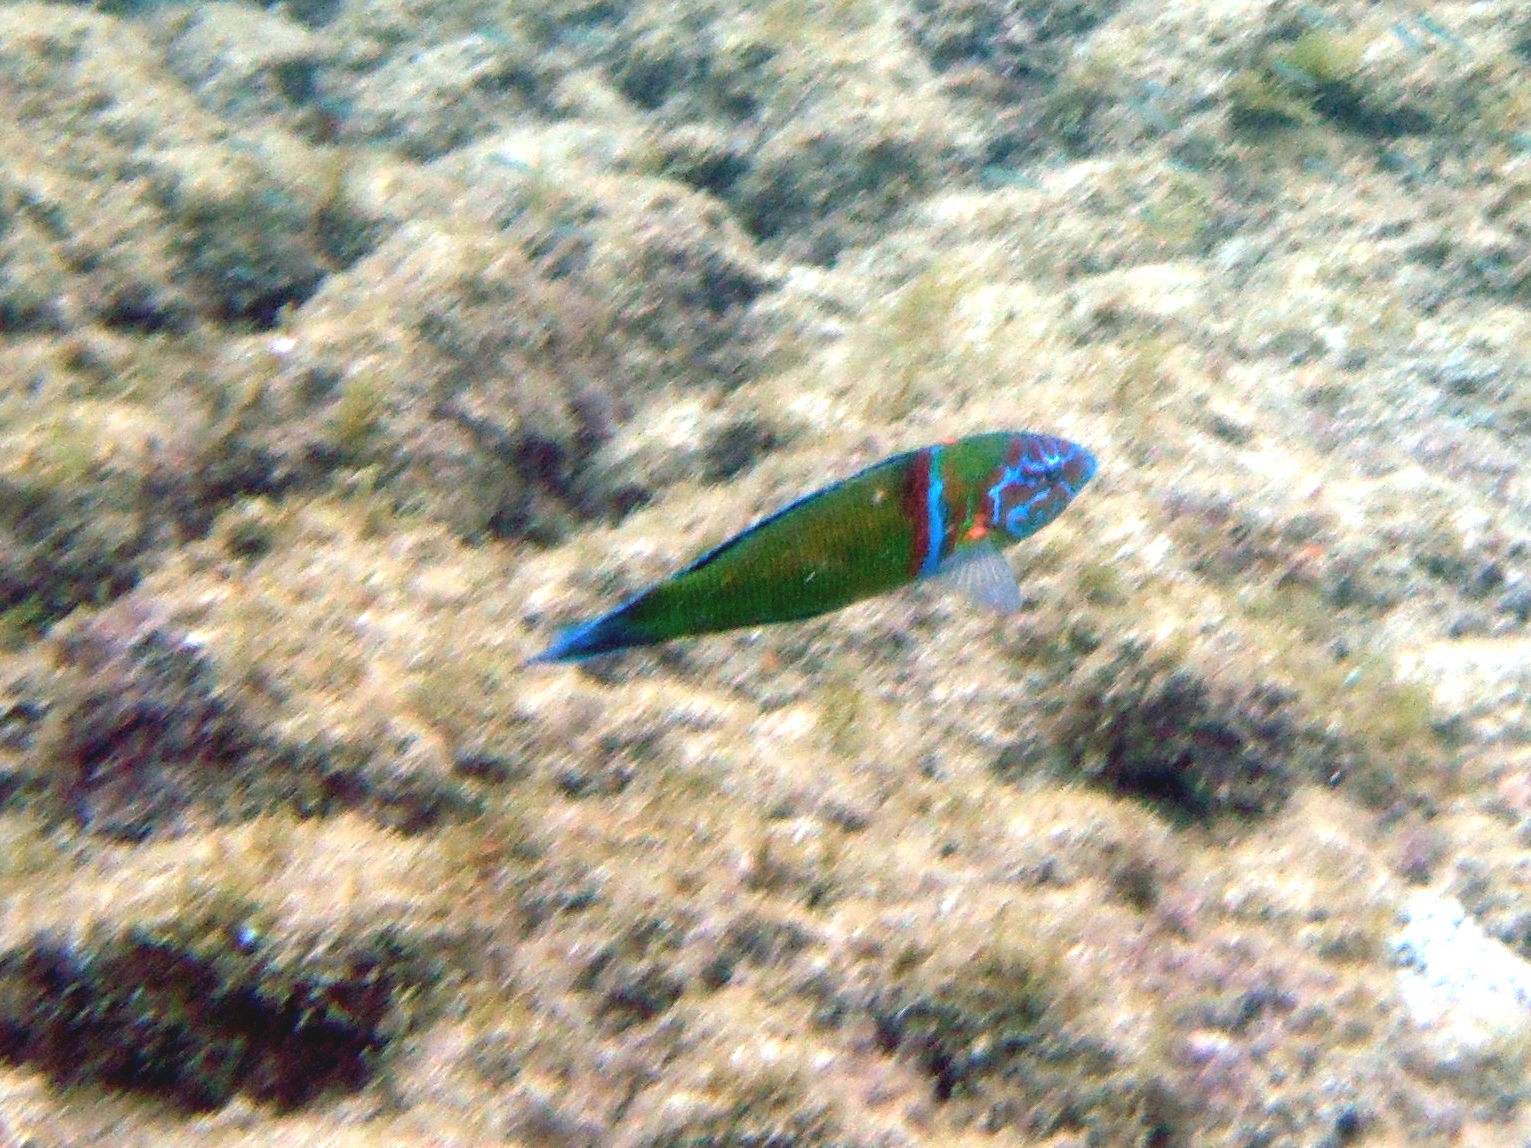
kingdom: Animalia
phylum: Chordata
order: Perciformes
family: Labridae
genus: Thalassoma
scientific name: Thalassoma pavo
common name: Ornate wrasse
